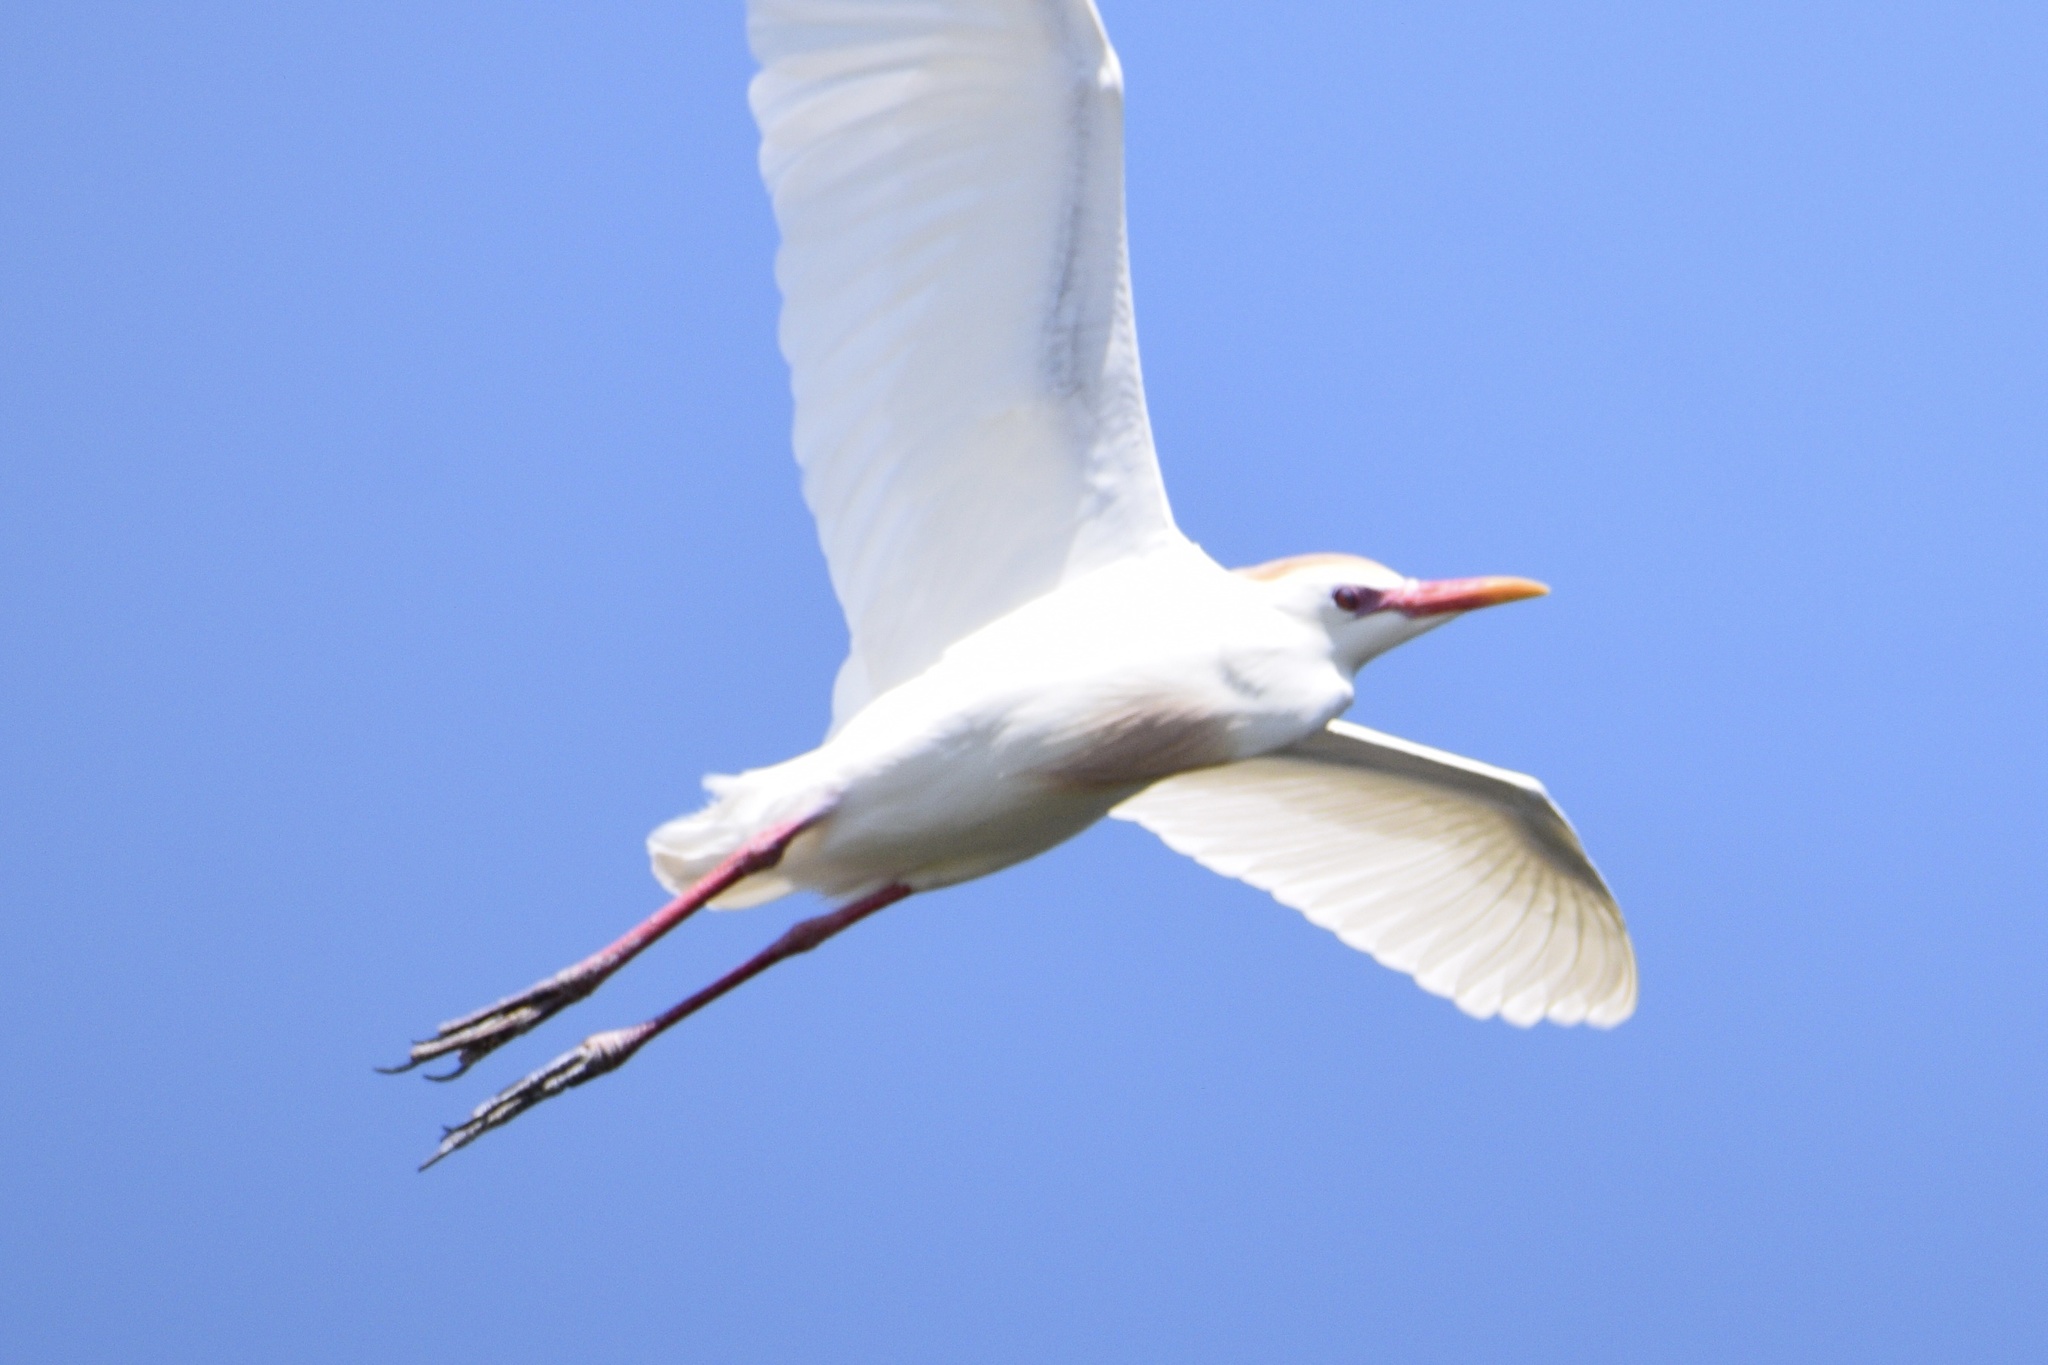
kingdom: Animalia
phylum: Chordata
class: Aves
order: Pelecaniformes
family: Ardeidae
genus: Bubulcus
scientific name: Bubulcus ibis
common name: Cattle egret
